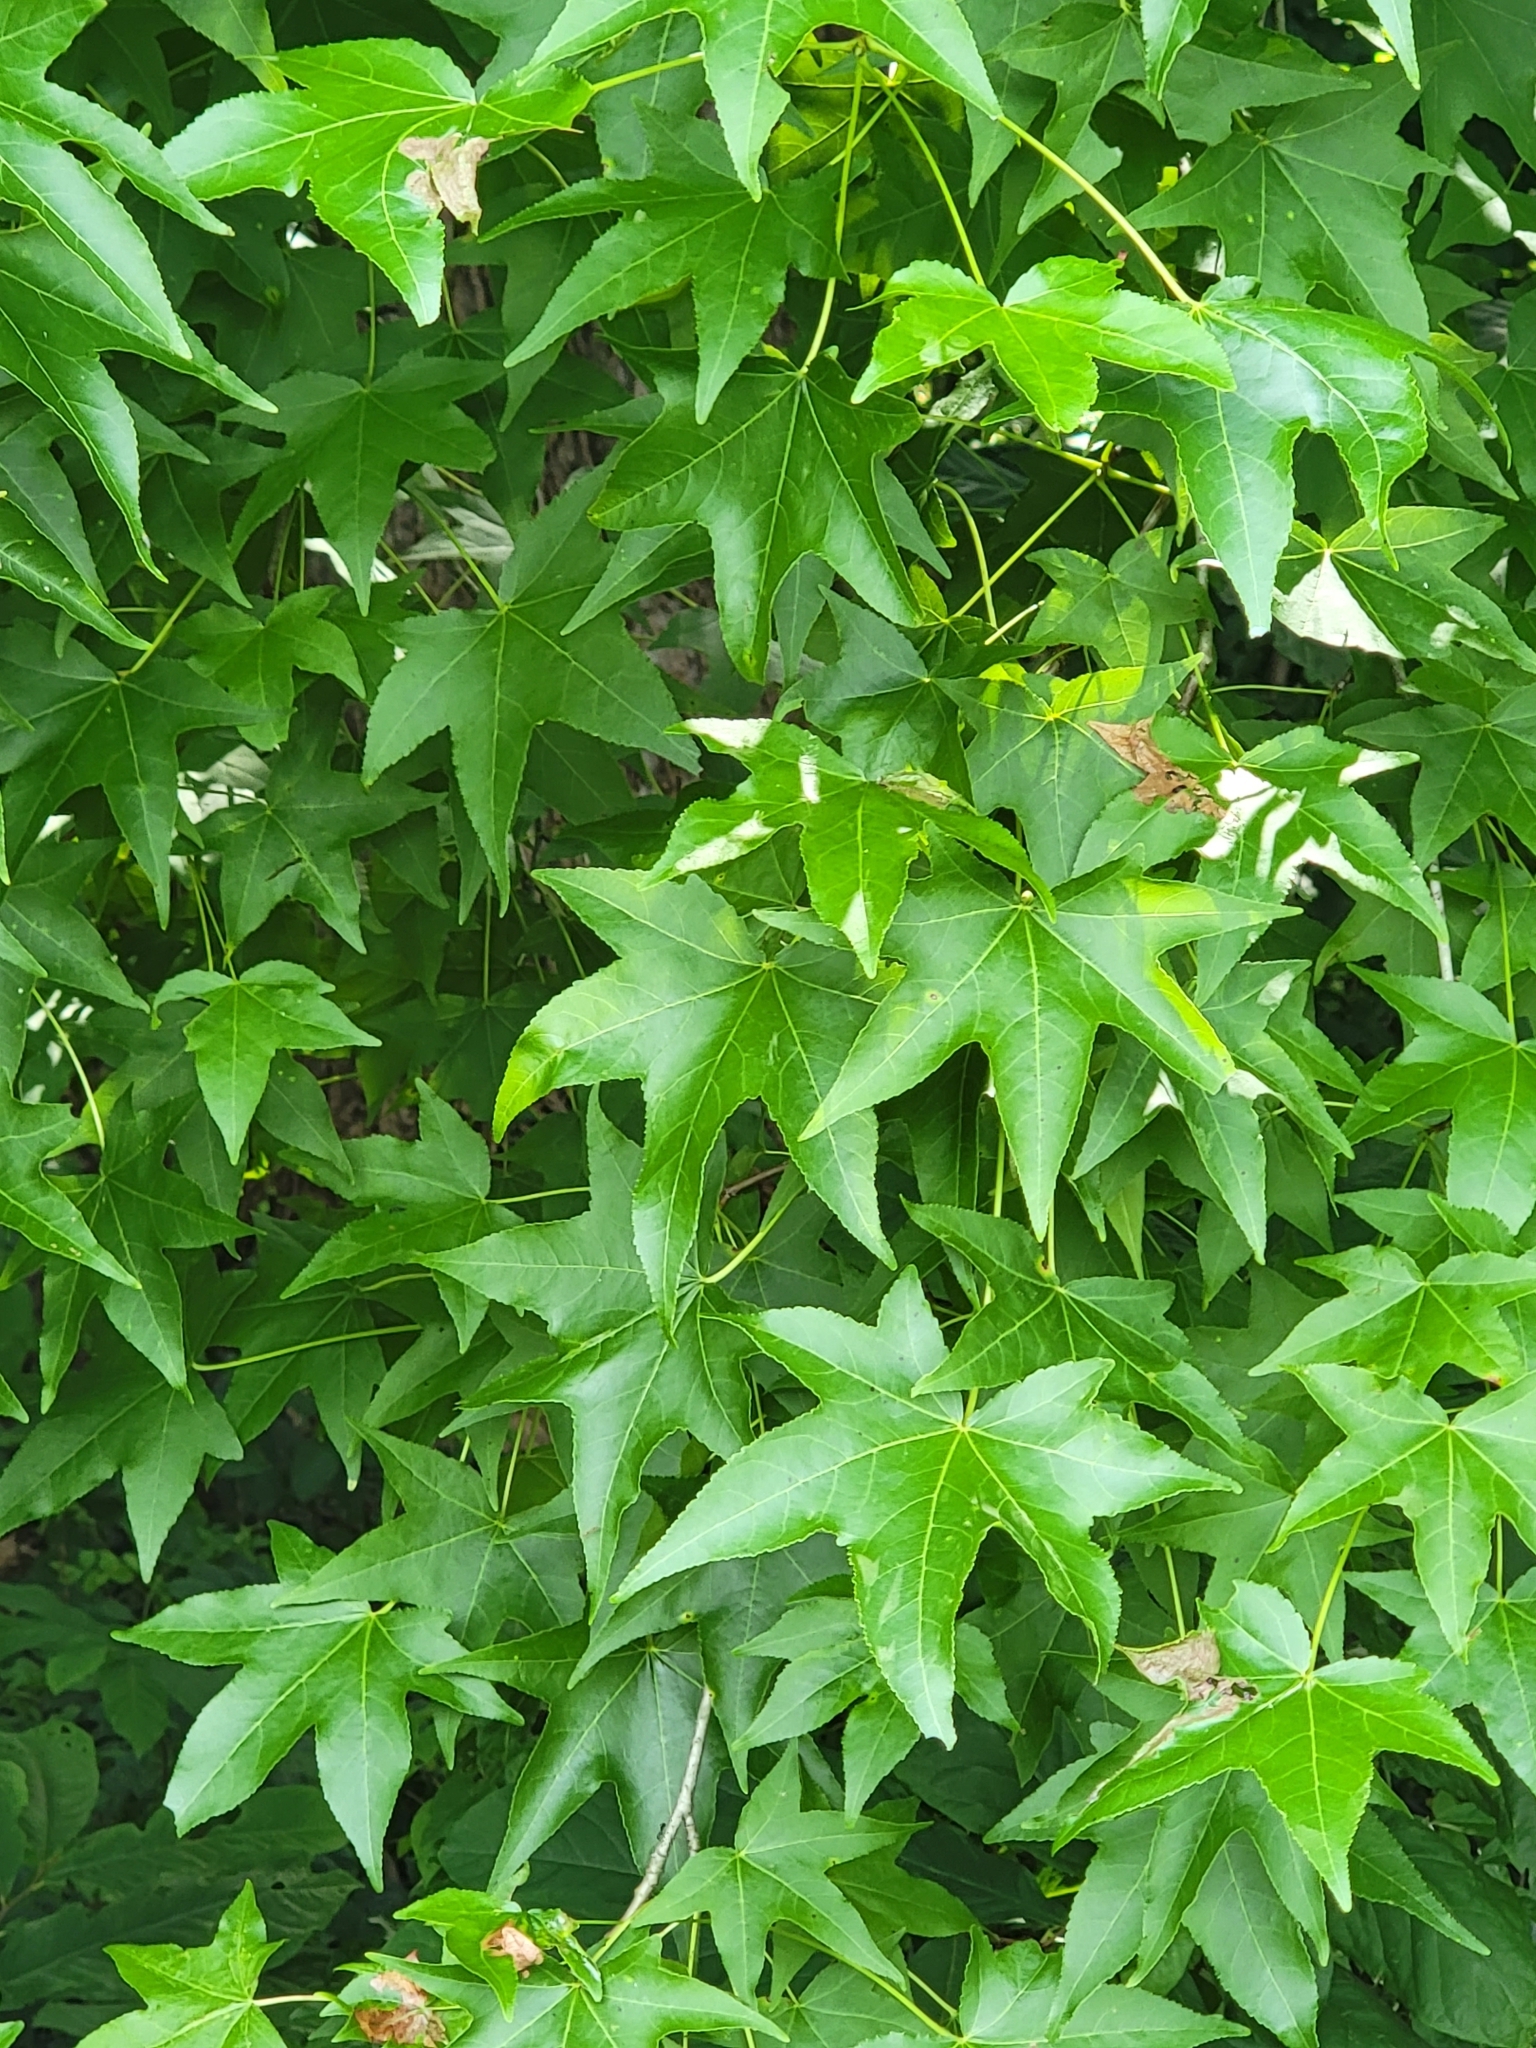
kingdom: Plantae
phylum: Tracheophyta
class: Magnoliopsida
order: Saxifragales
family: Altingiaceae
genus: Liquidambar
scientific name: Liquidambar styraciflua
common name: Sweet gum
